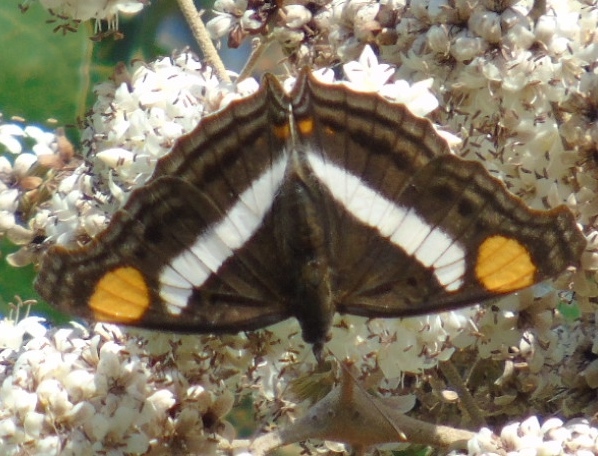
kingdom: Animalia
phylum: Arthropoda
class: Insecta
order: Lepidoptera
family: Nymphalidae
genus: Doxocopa
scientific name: Doxocopa
